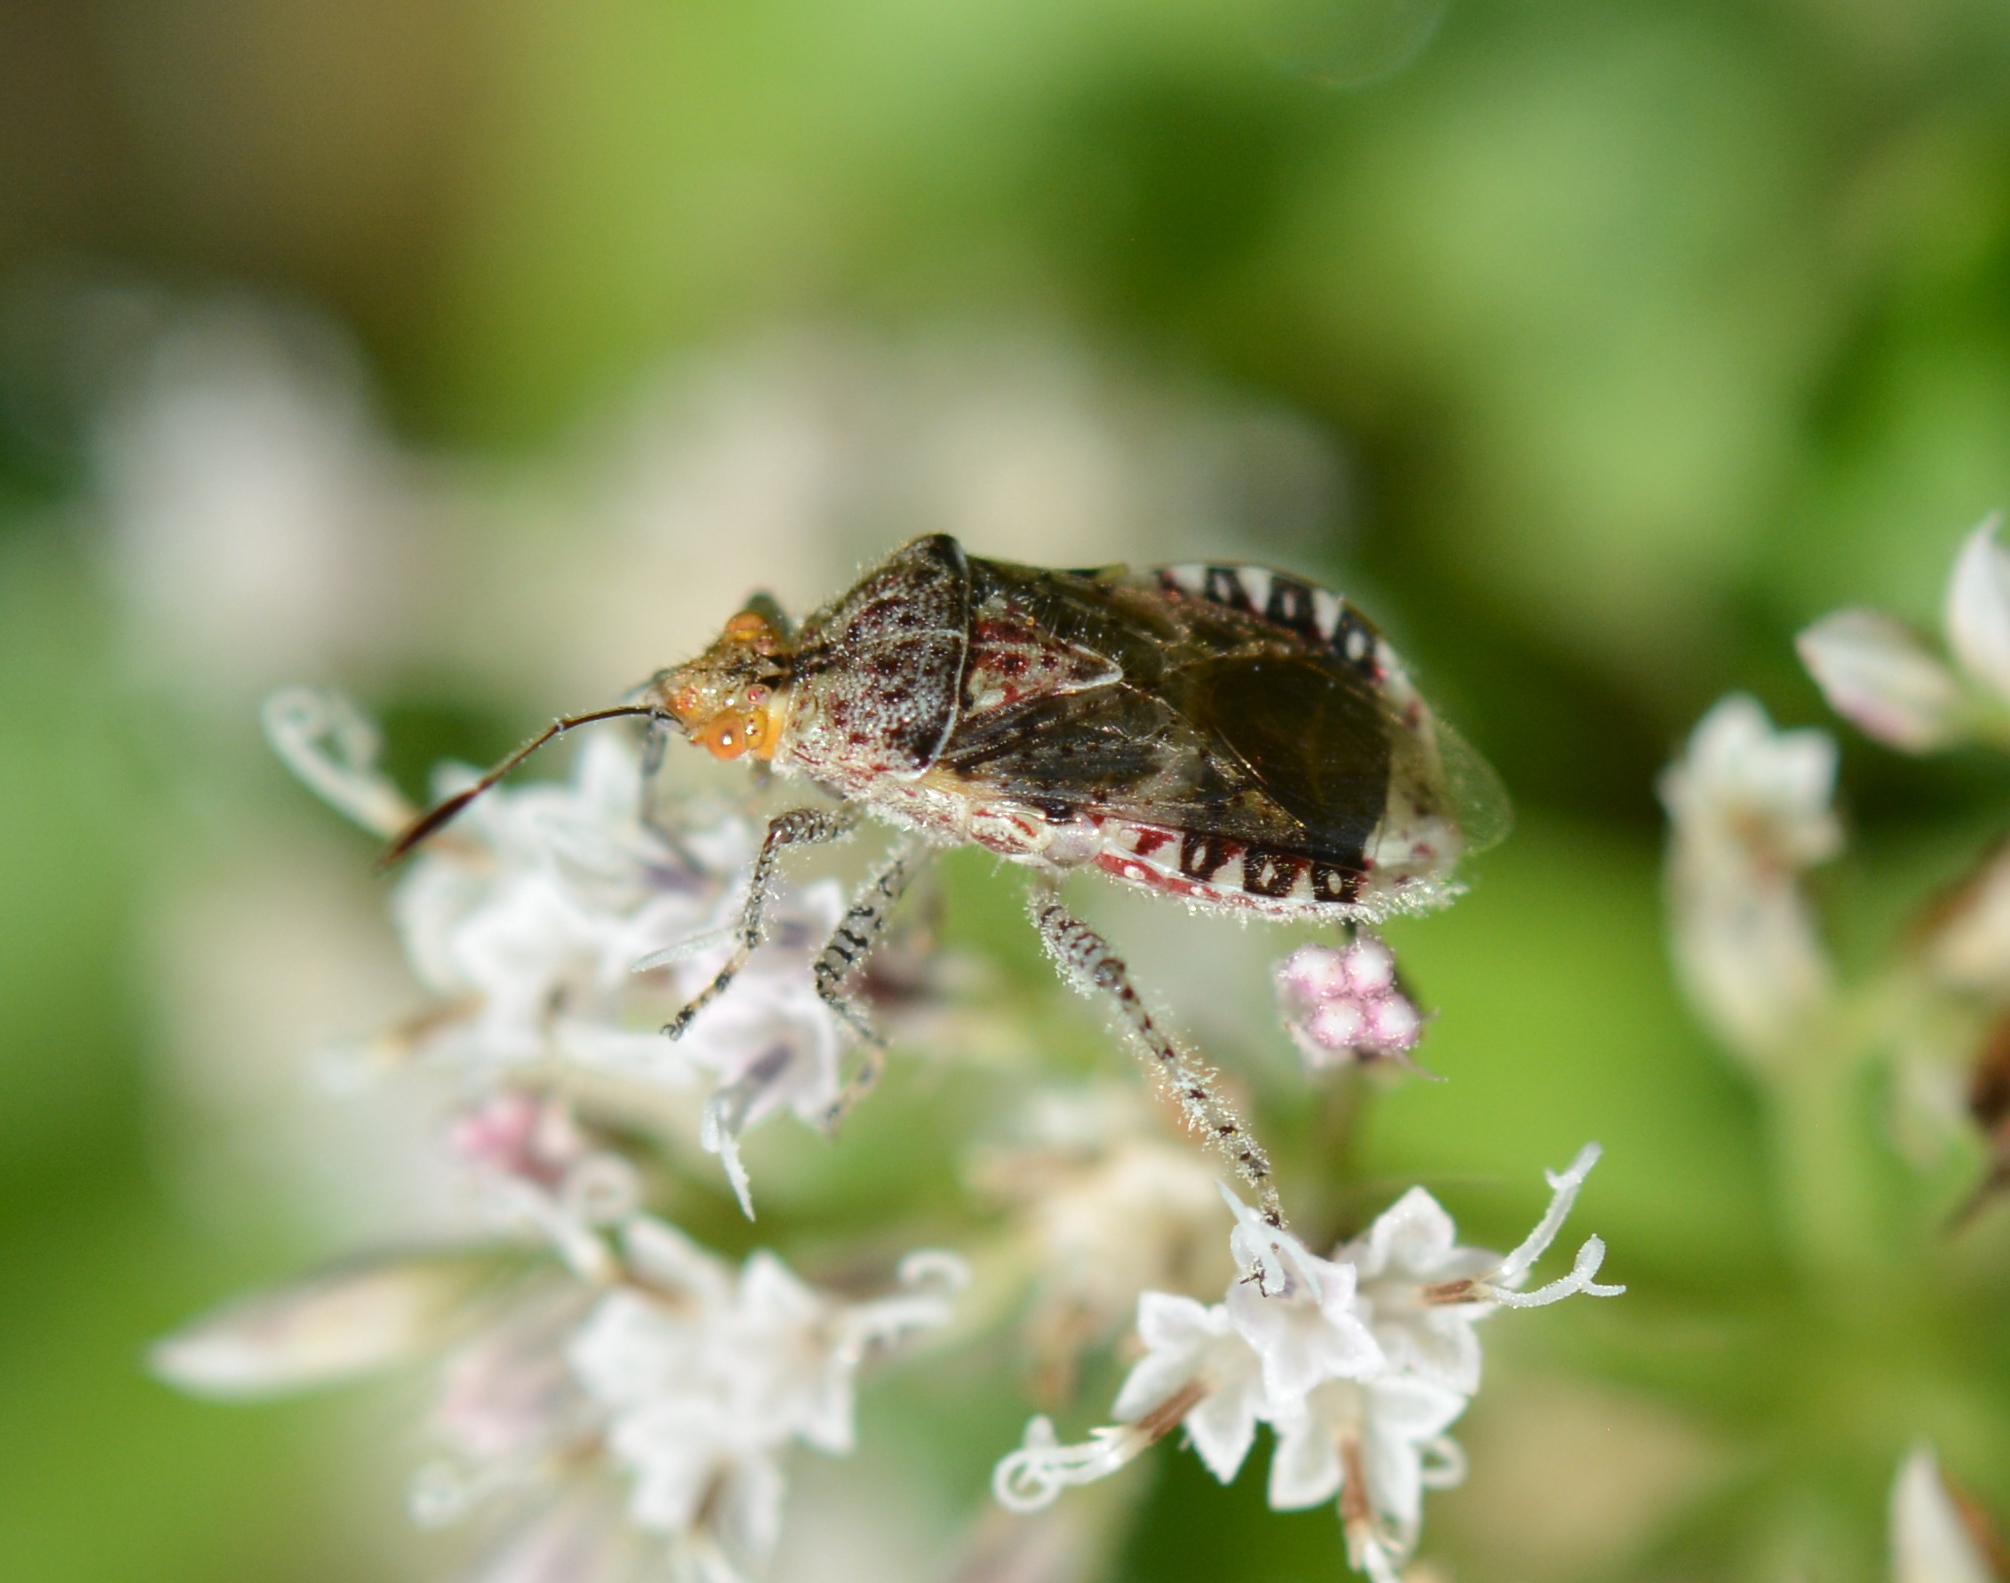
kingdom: Animalia
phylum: Arthropoda
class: Insecta
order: Hemiptera
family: Rhopalidae
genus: Niesthrea
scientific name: Niesthrea louisianica
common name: Scentless plant bug
